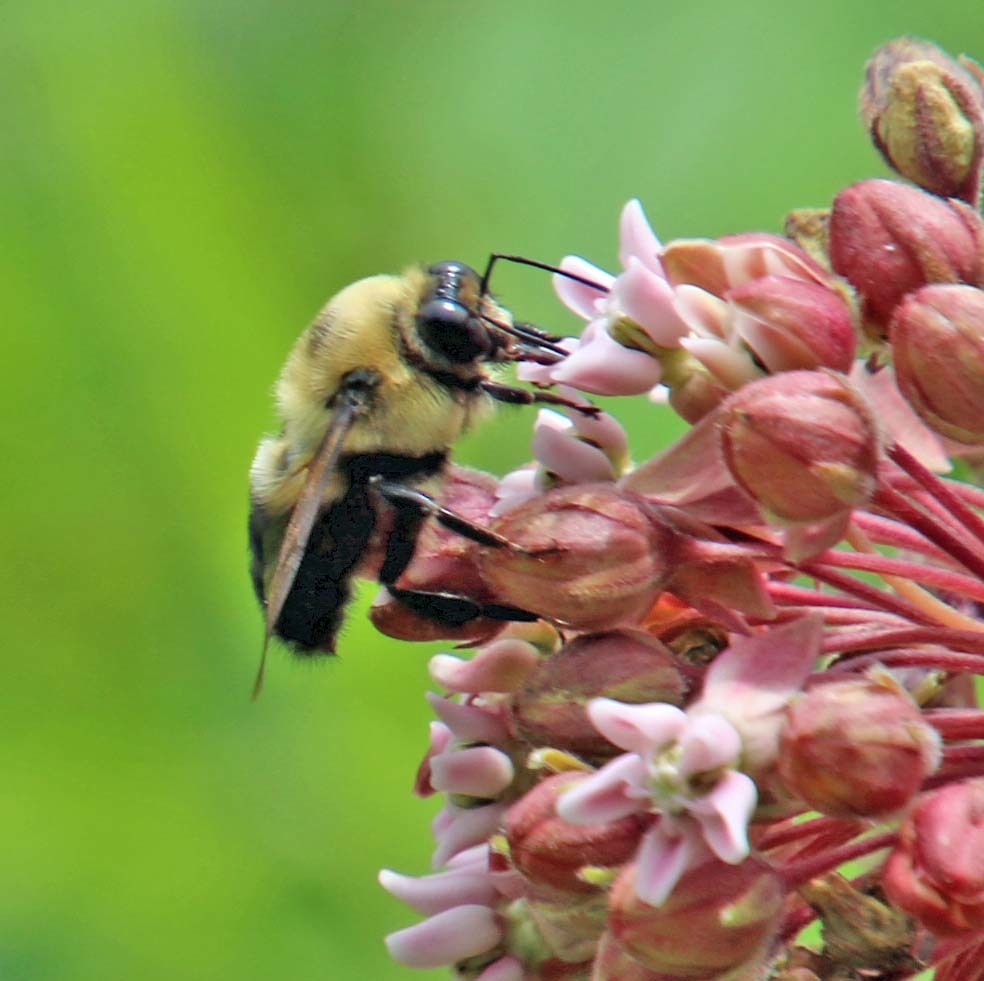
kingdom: Animalia
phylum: Arthropoda
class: Insecta
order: Hymenoptera
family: Apidae
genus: Bombus
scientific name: Bombus griseocollis
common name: Brown-belted bumble bee
